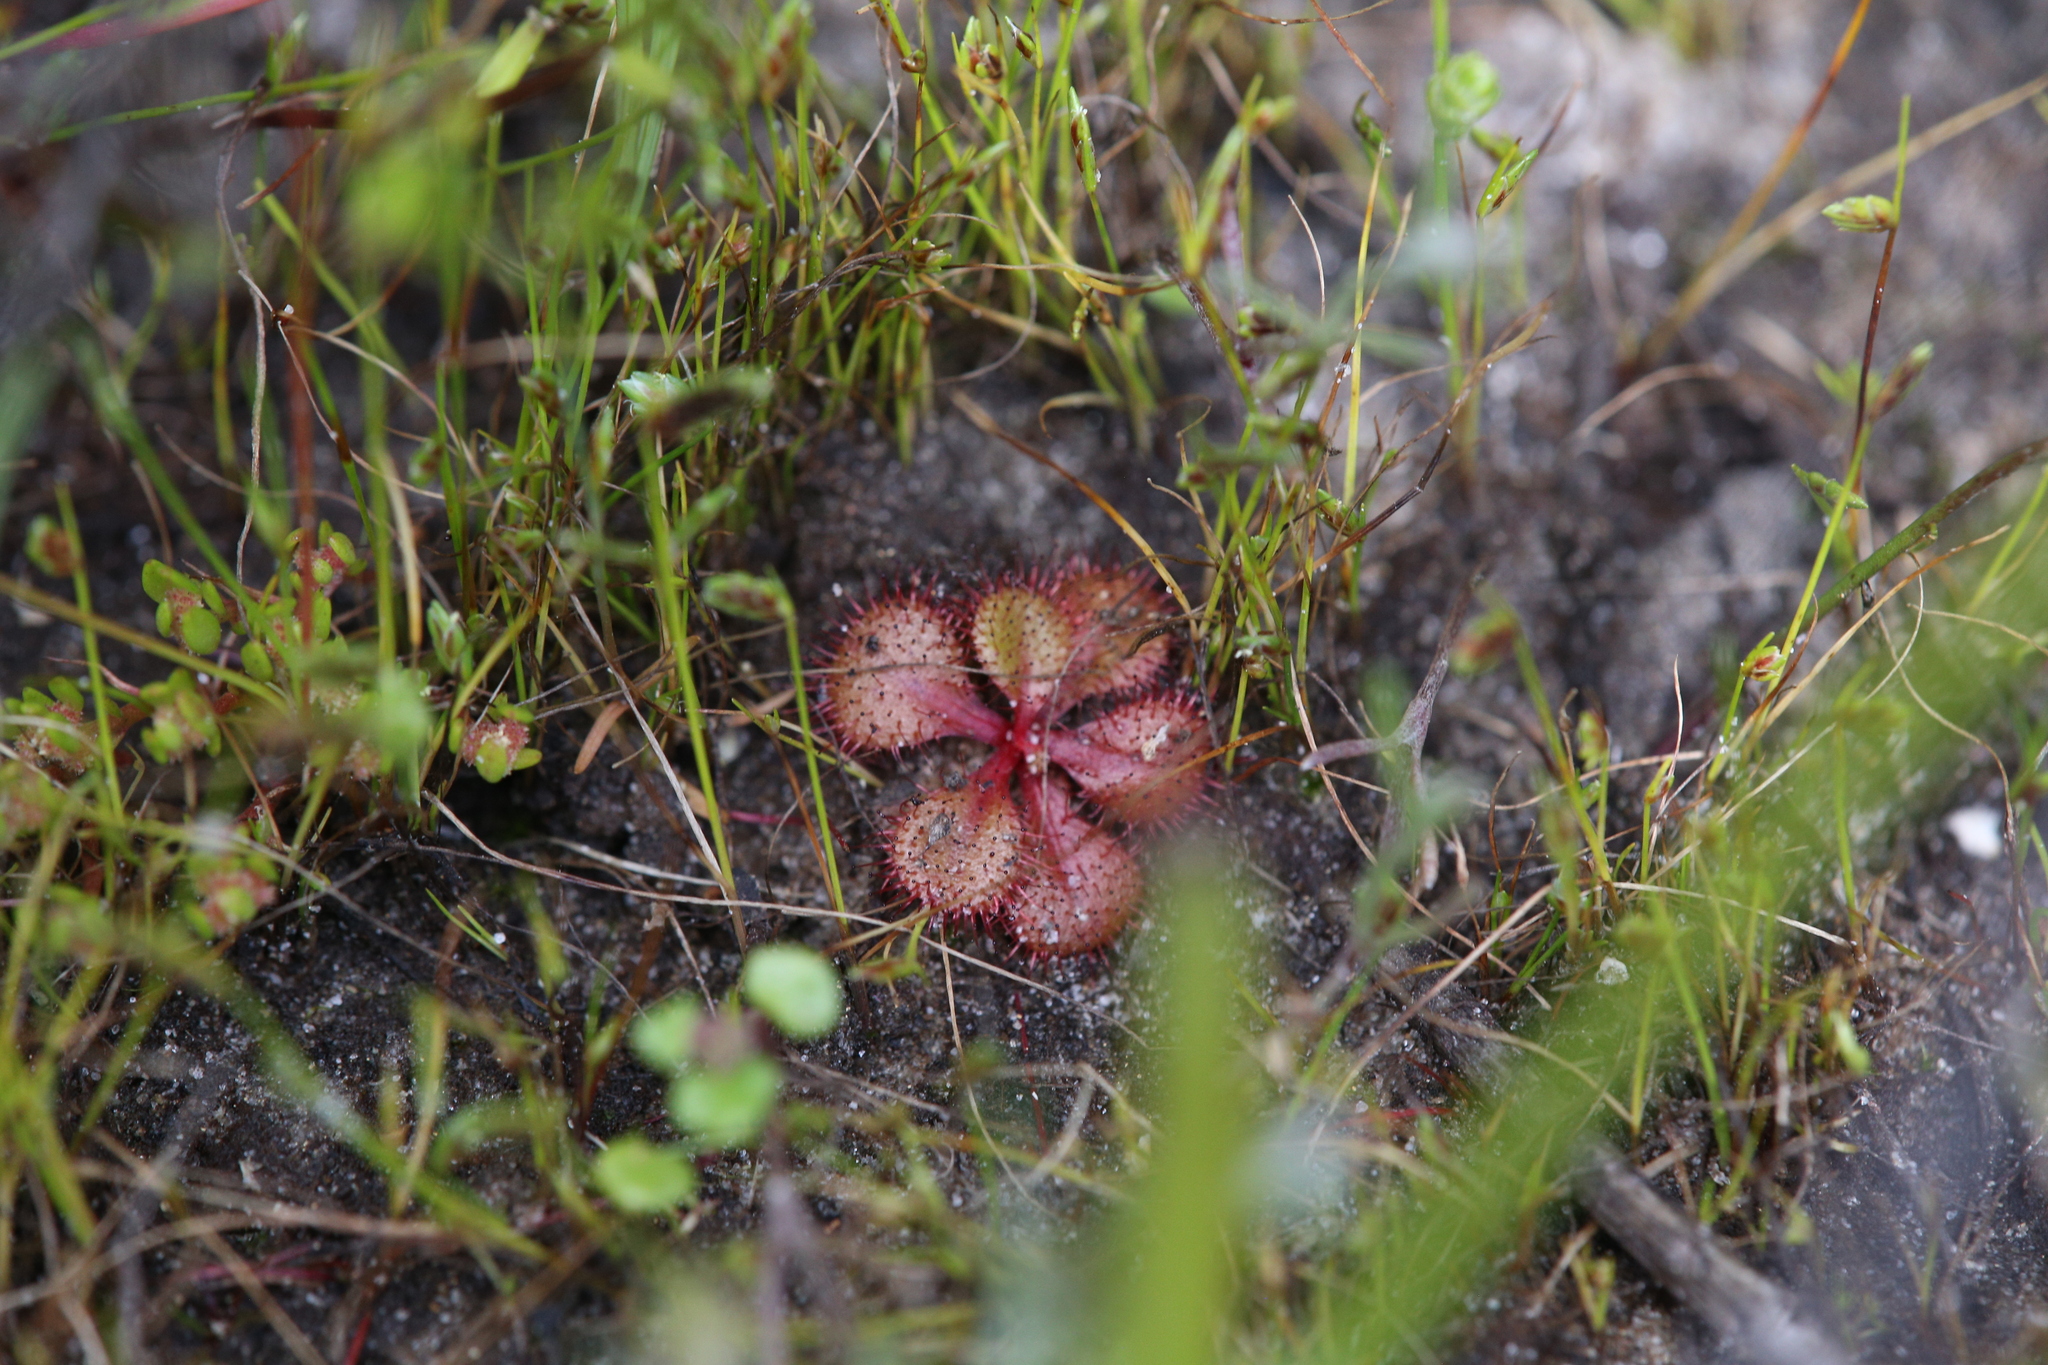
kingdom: Plantae
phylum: Tracheophyta
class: Magnoliopsida
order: Caryophyllales
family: Droseraceae
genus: Drosera
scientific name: Drosera tubaestylis
